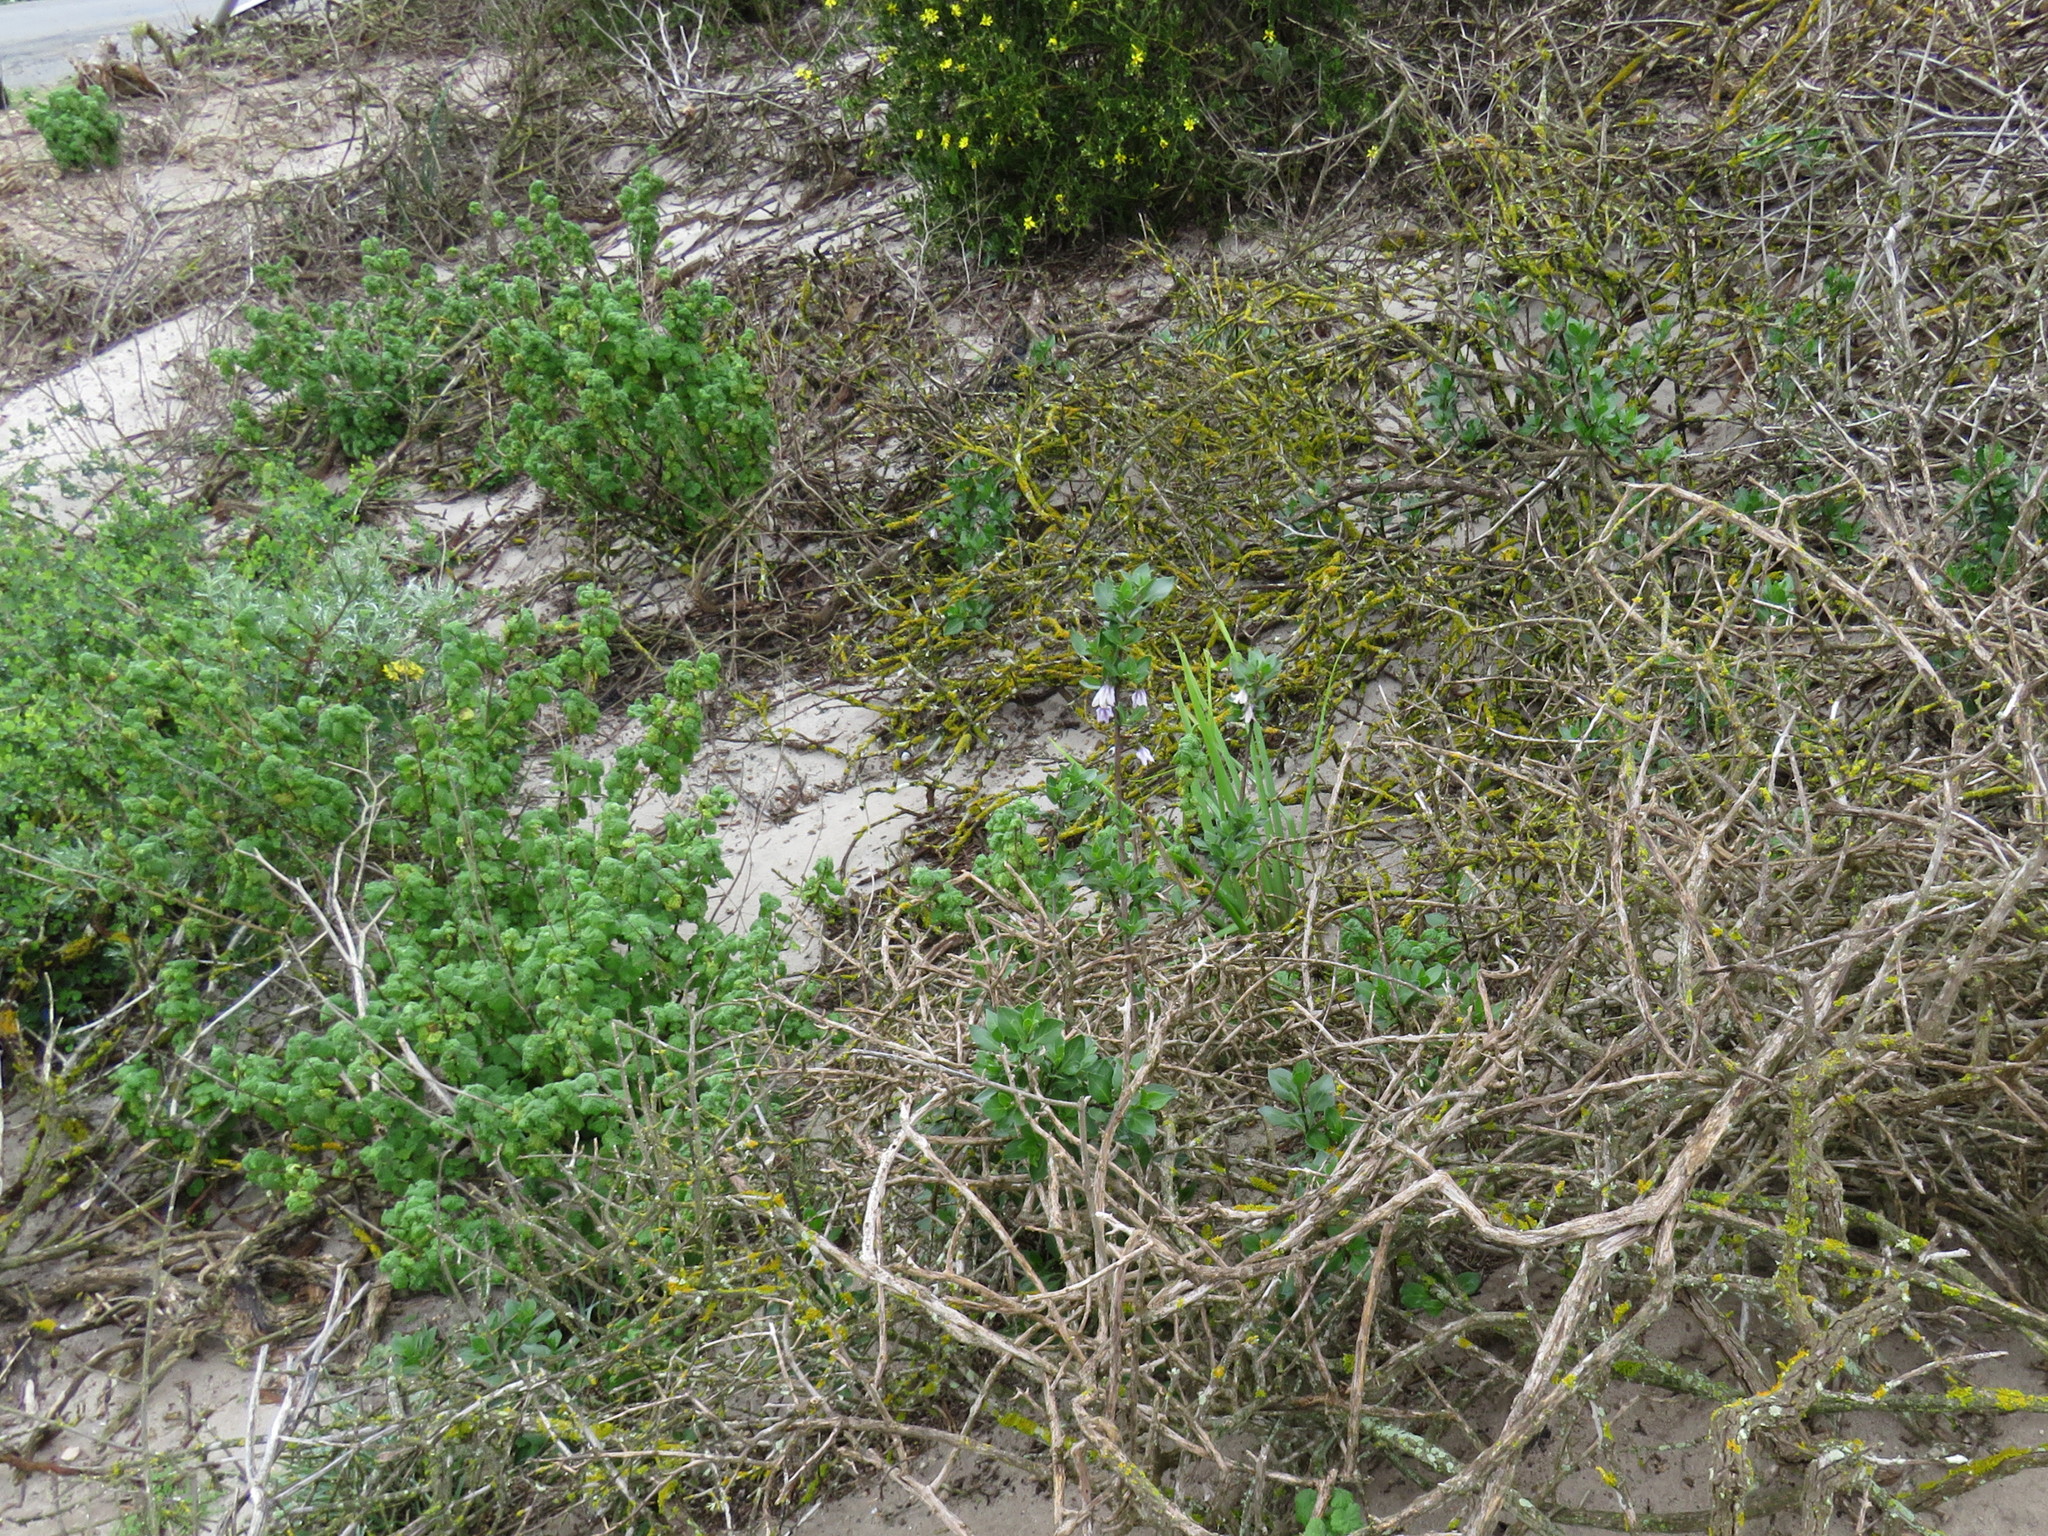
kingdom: Plantae
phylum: Tracheophyta
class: Magnoliopsida
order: Solanales
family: Solanaceae
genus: Solanum
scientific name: Solanum guineense
